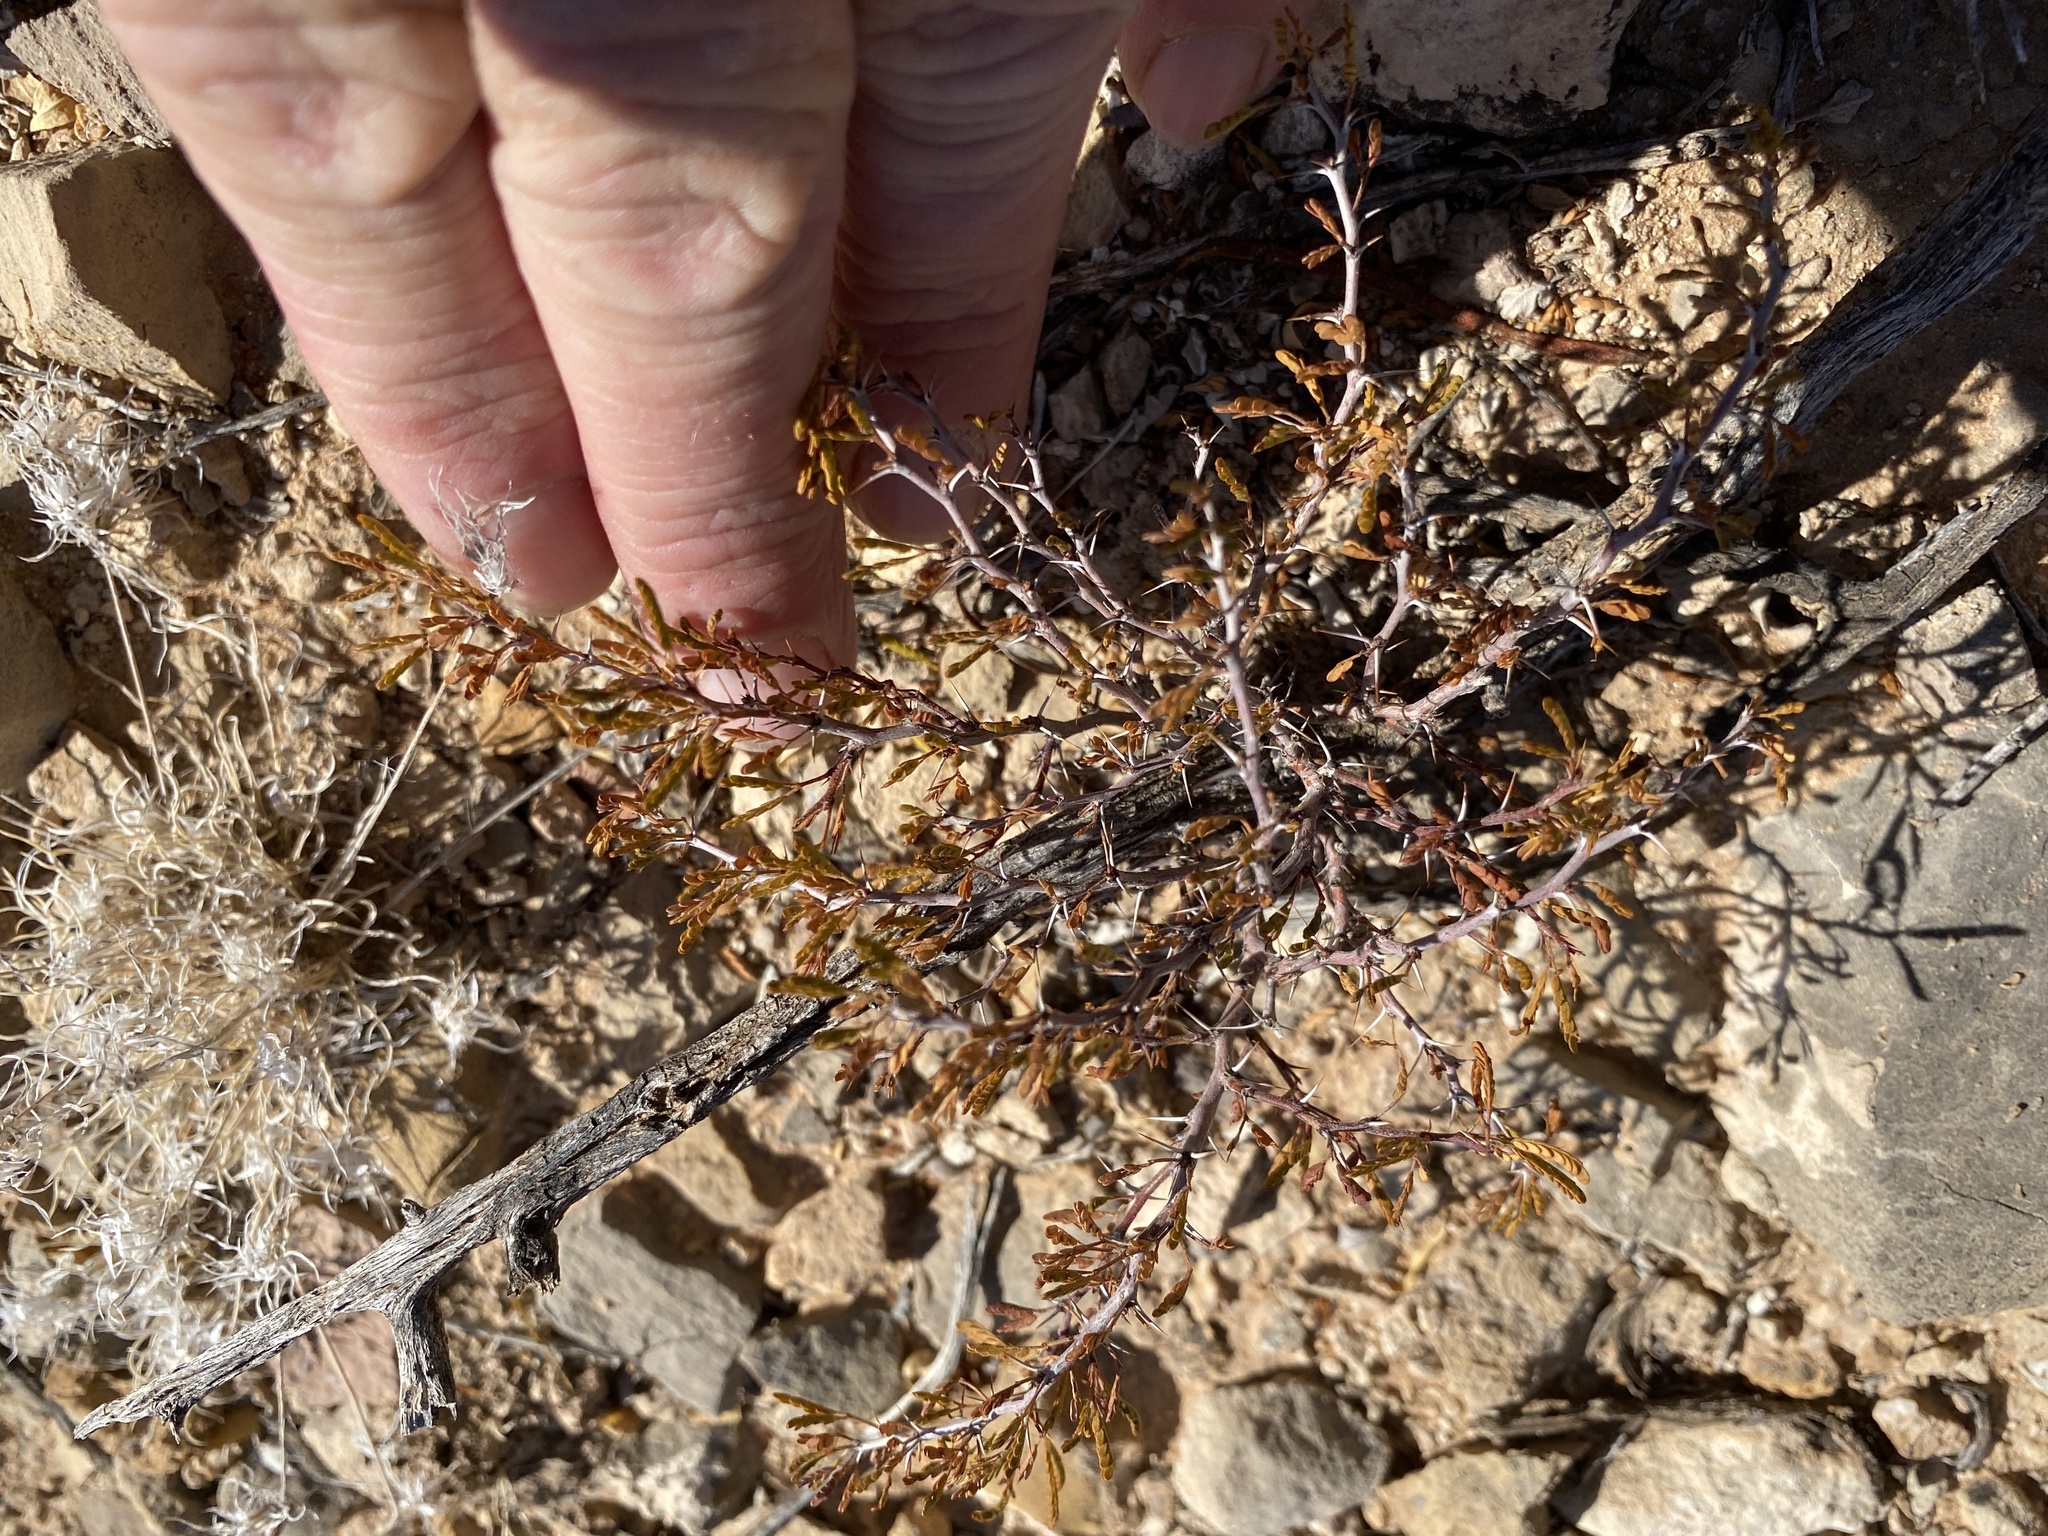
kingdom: Plantae
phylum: Tracheophyta
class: Magnoliopsida
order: Fabales
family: Fabaceae
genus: Vachellia
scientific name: Vachellia constricta
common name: Mescat acacia
